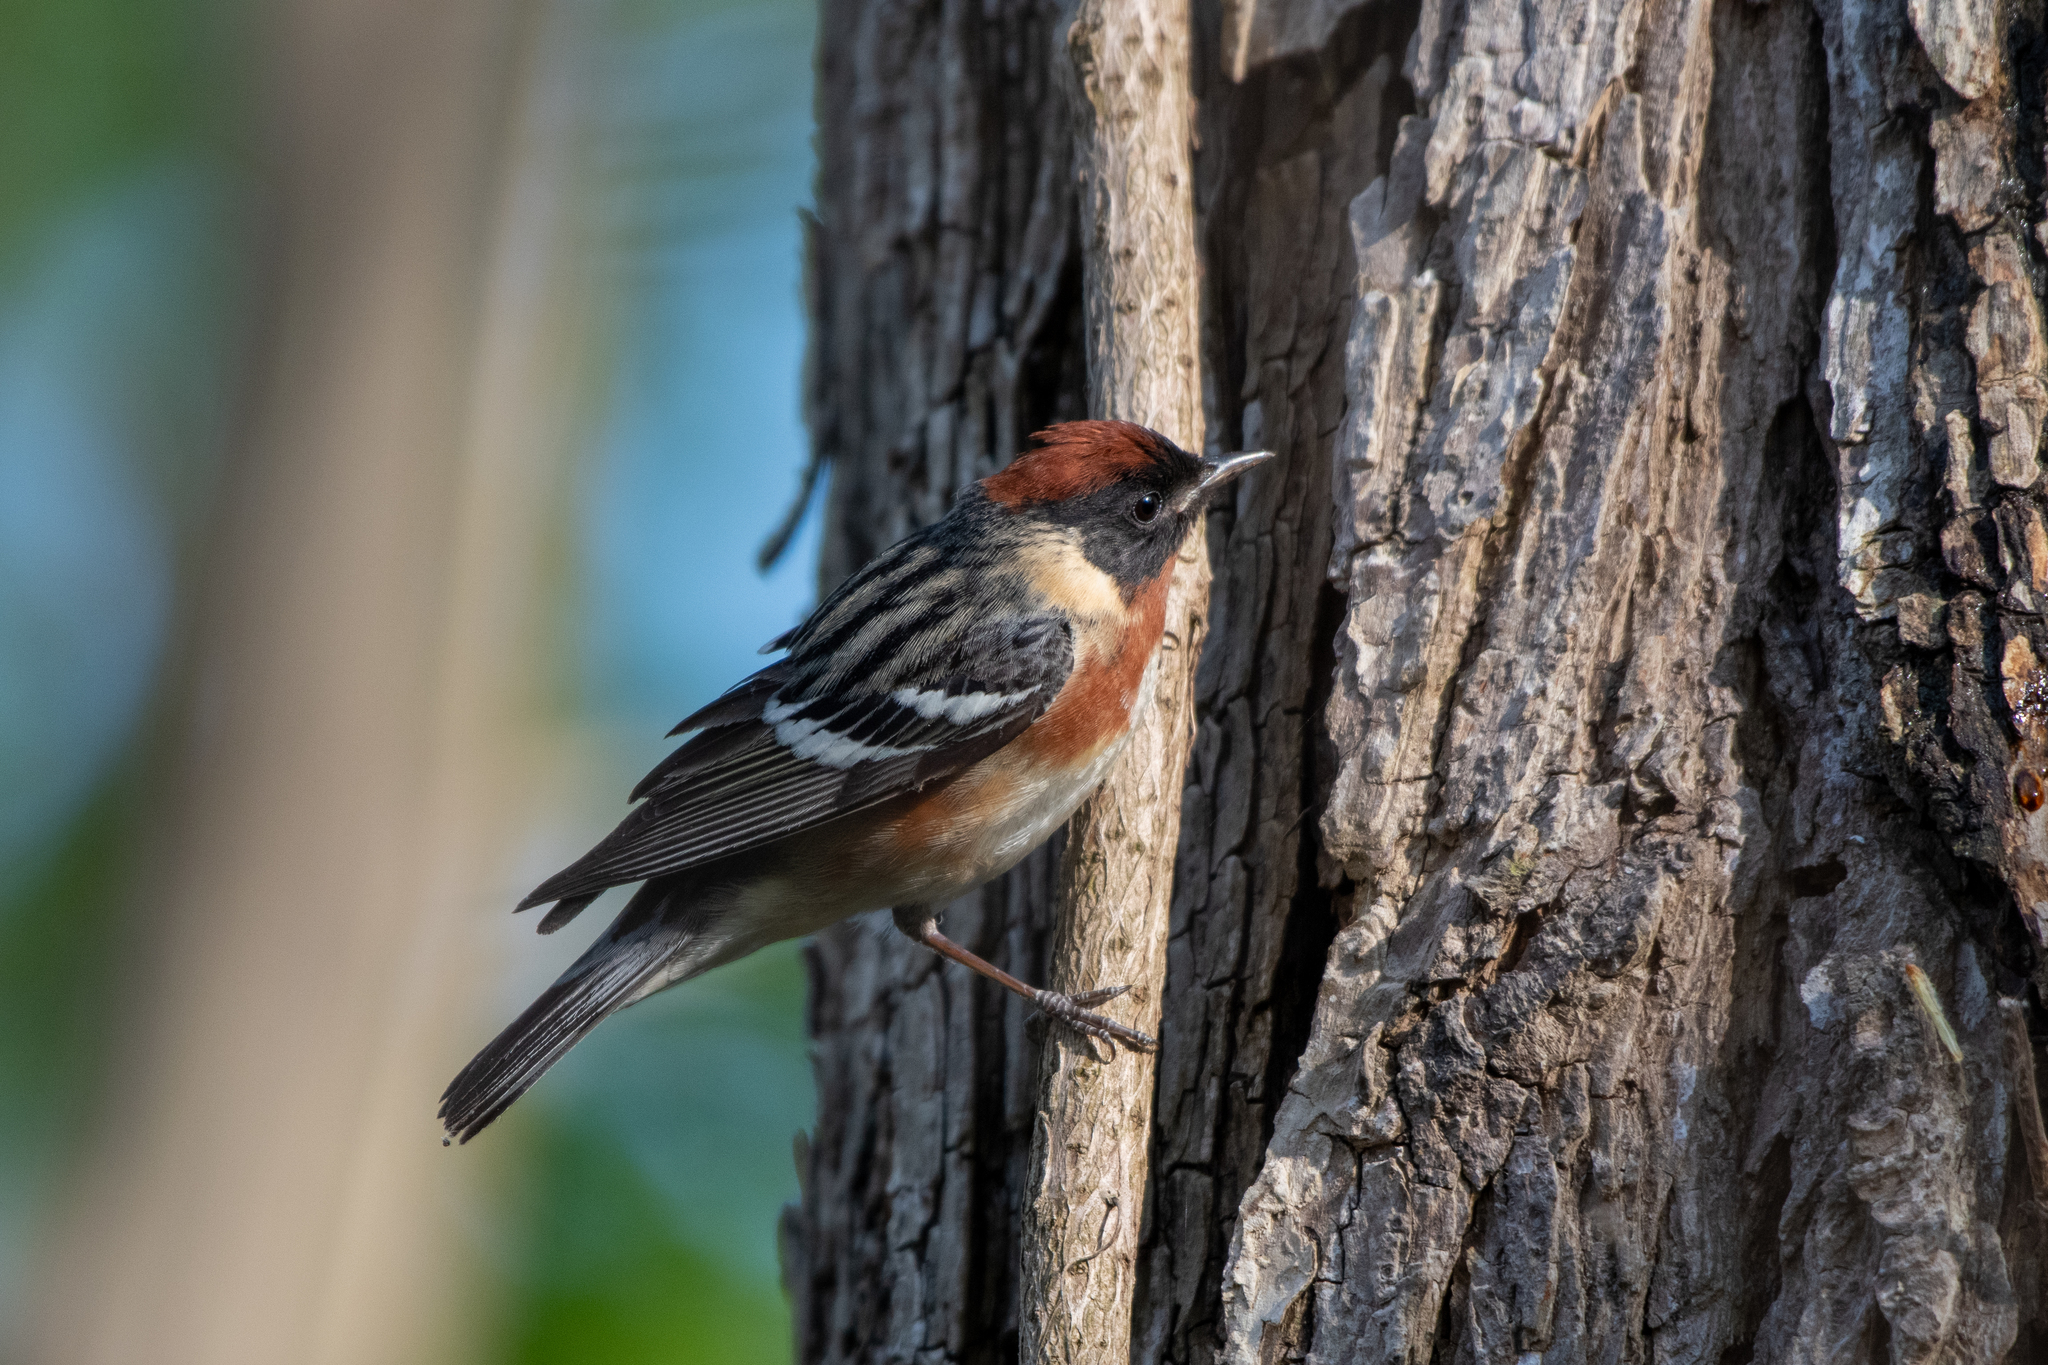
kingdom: Animalia
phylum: Chordata
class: Aves
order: Passeriformes
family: Parulidae
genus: Setophaga
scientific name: Setophaga castanea
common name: Bay-breasted warbler
